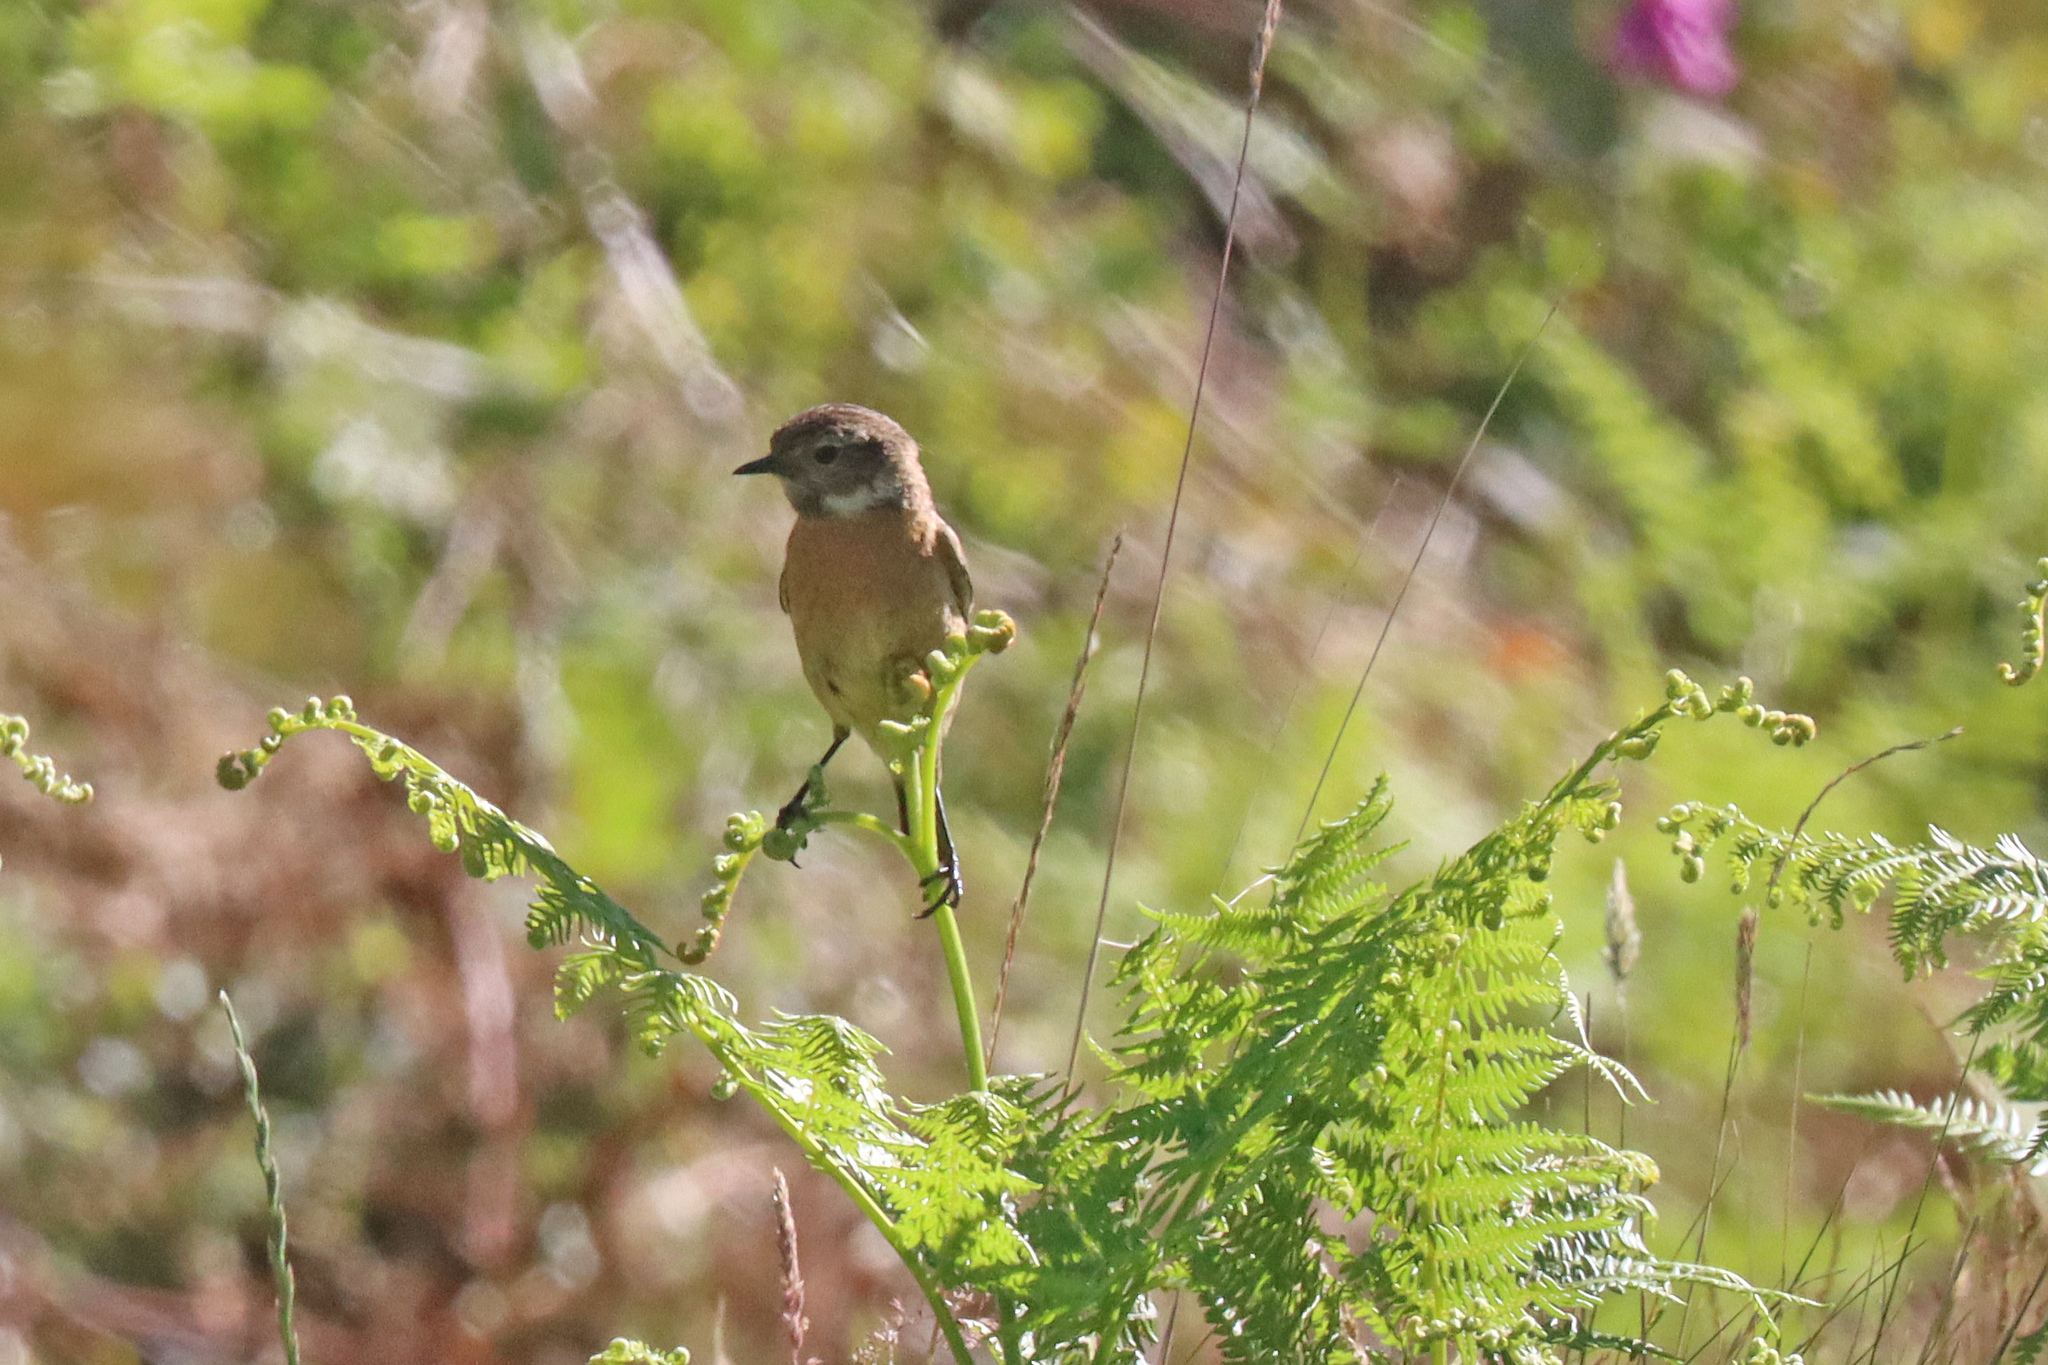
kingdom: Animalia
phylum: Chordata
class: Aves
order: Passeriformes
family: Muscicapidae
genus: Saxicola
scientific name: Saxicola rubicola
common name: European stonechat
